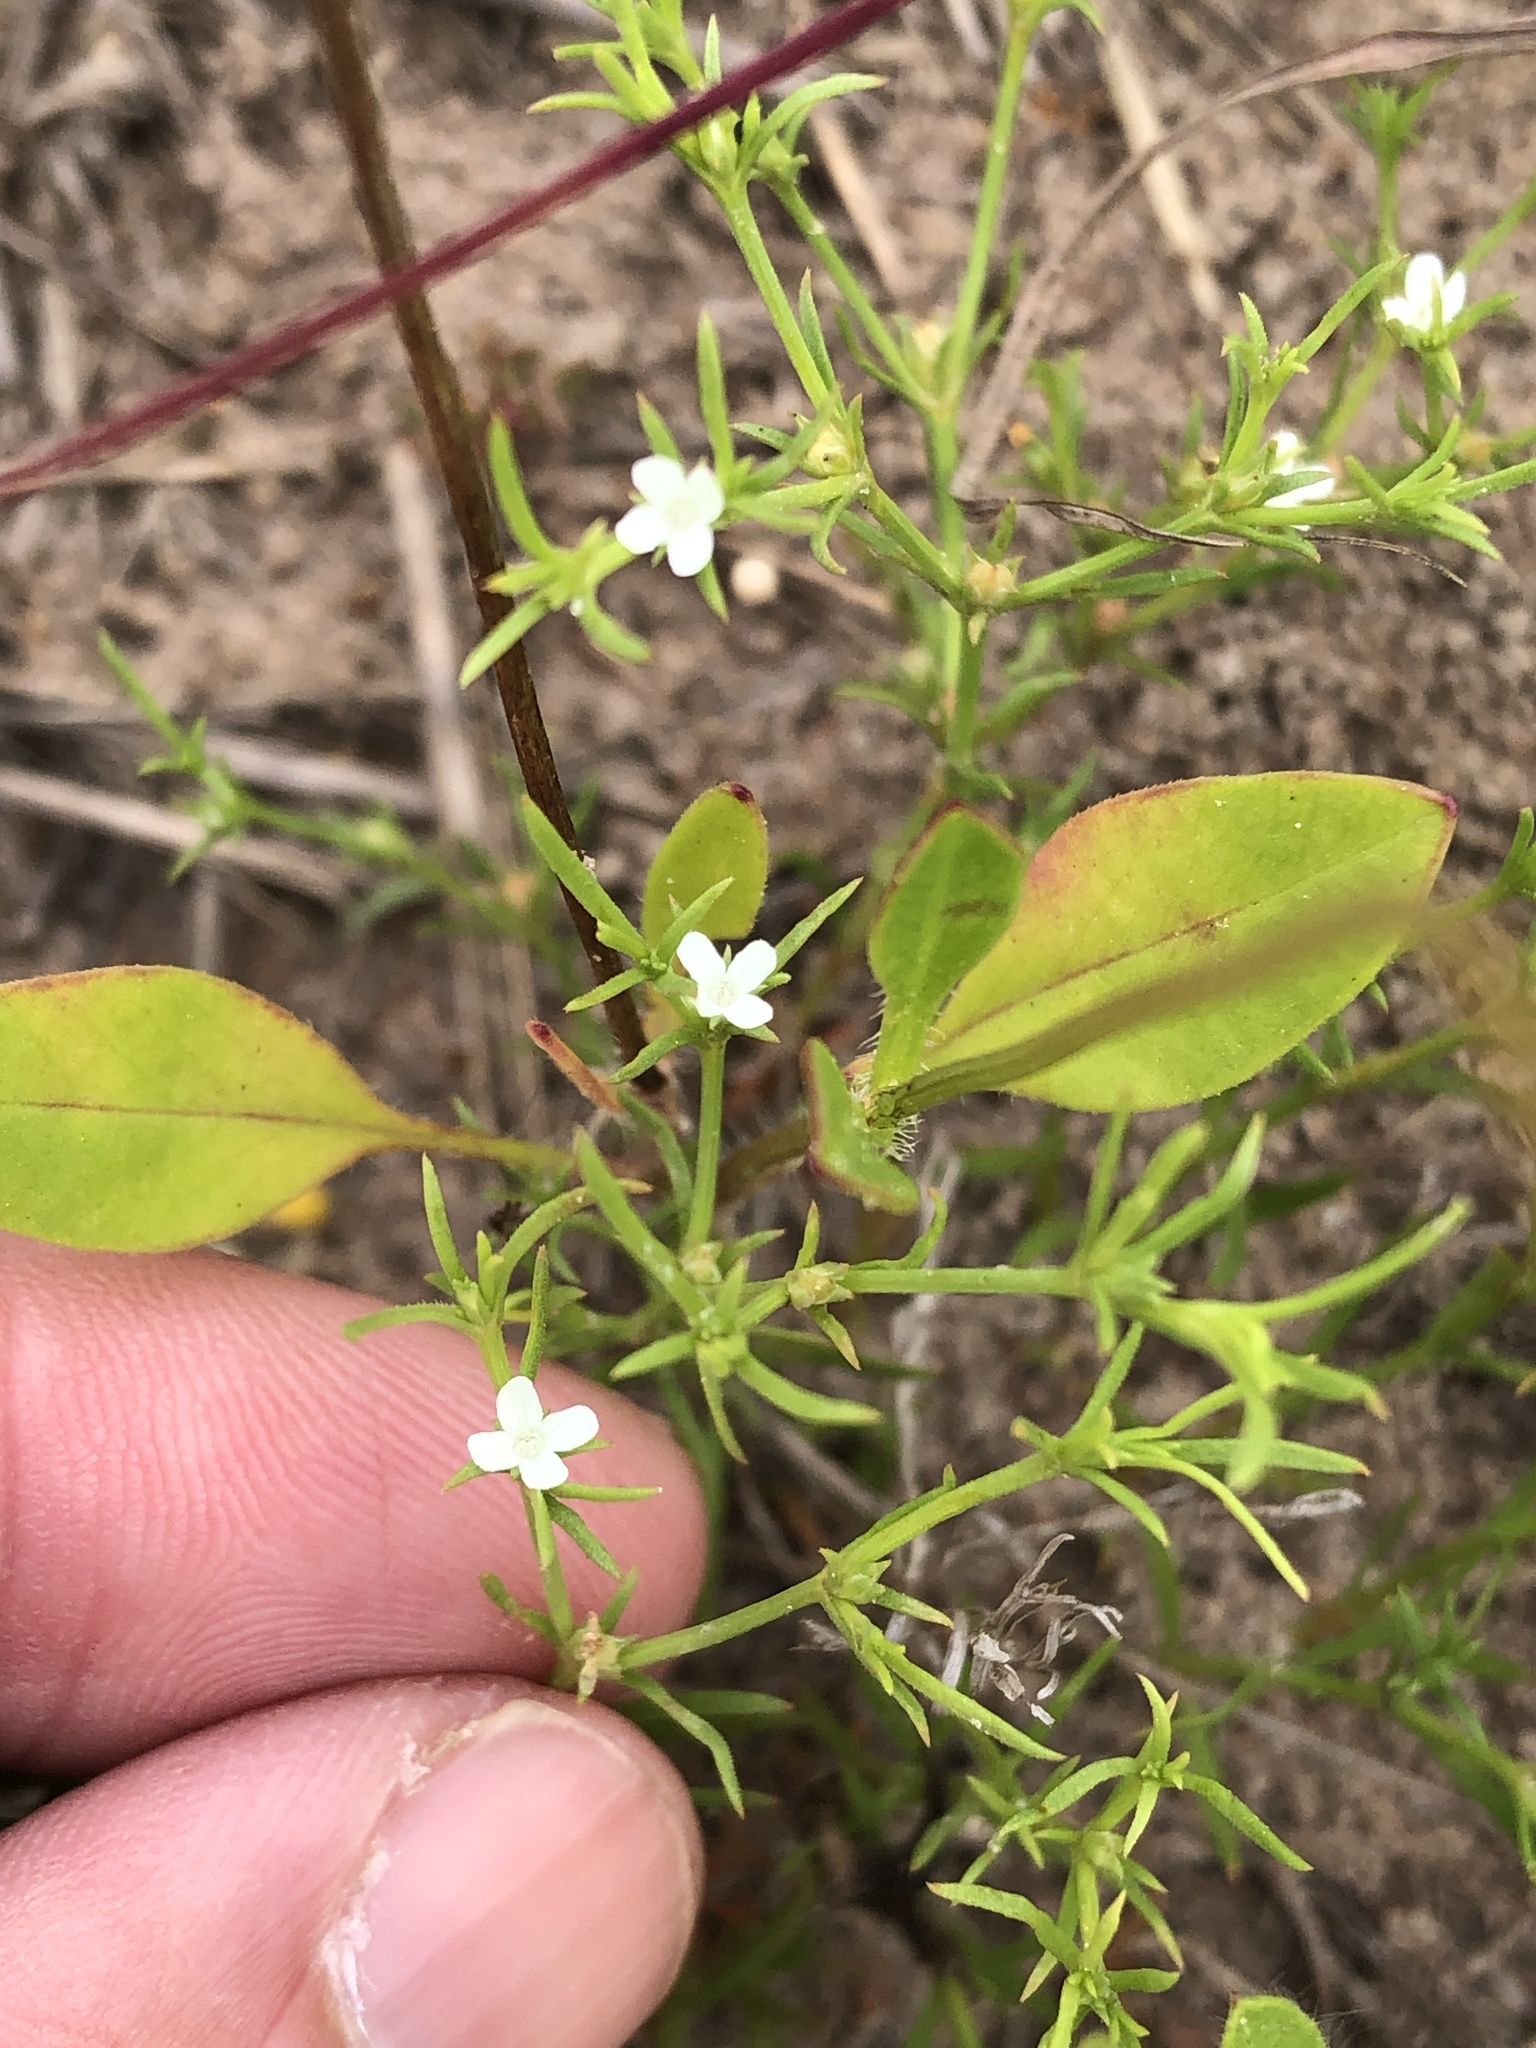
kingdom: Plantae
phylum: Tracheophyta
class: Magnoliopsida
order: Lamiales
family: Tetrachondraceae
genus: Polypremum
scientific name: Polypremum procumbens
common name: Juniper-leaf
